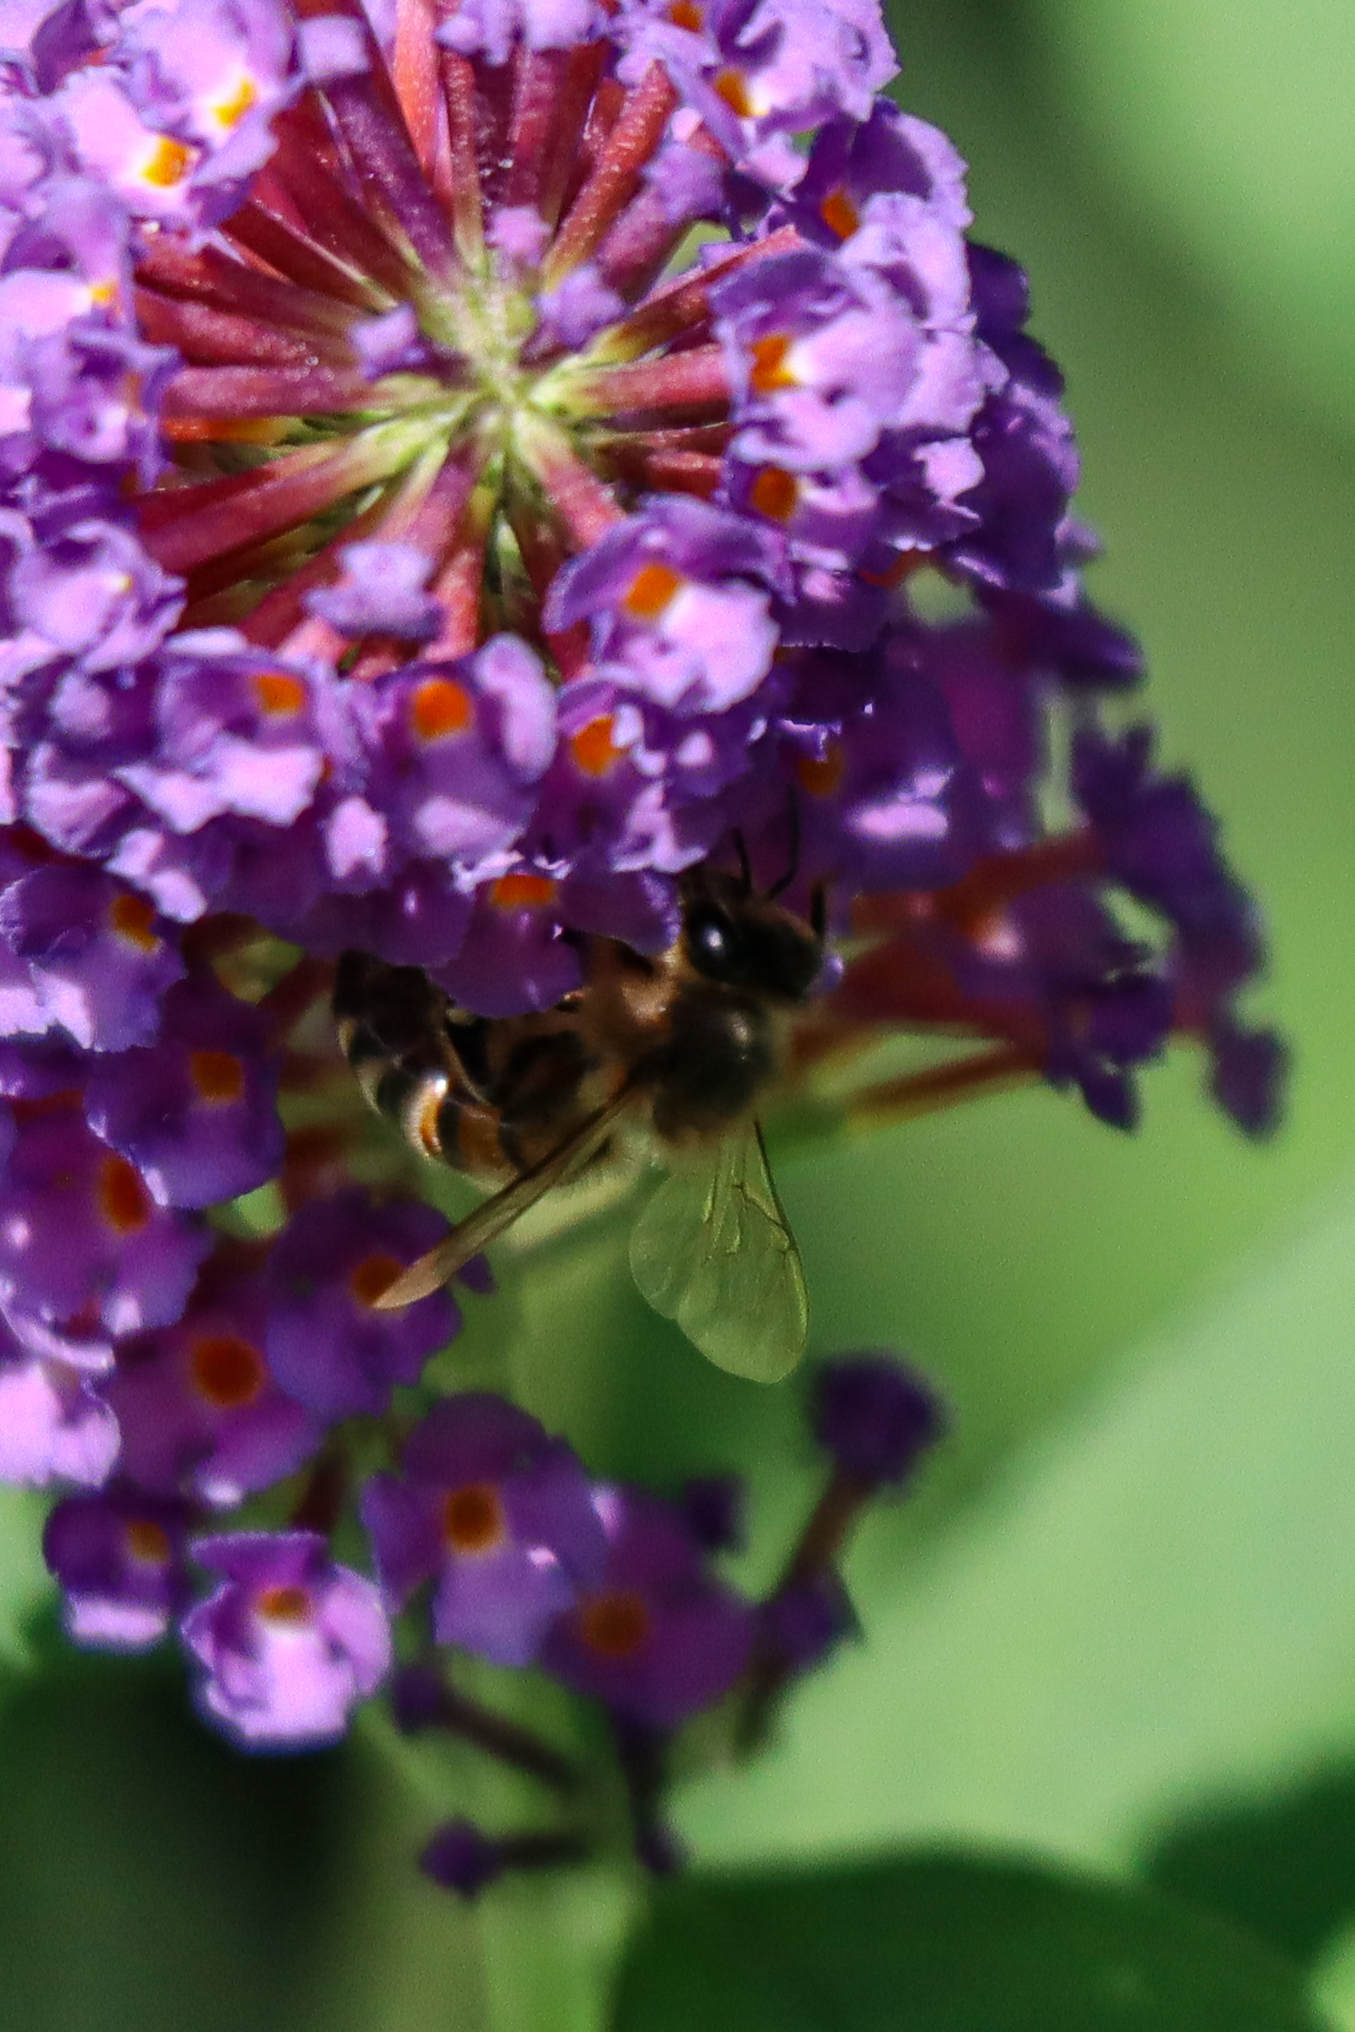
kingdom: Animalia
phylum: Arthropoda
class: Insecta
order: Hymenoptera
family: Apidae
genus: Apis
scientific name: Apis mellifera
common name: Honey bee
